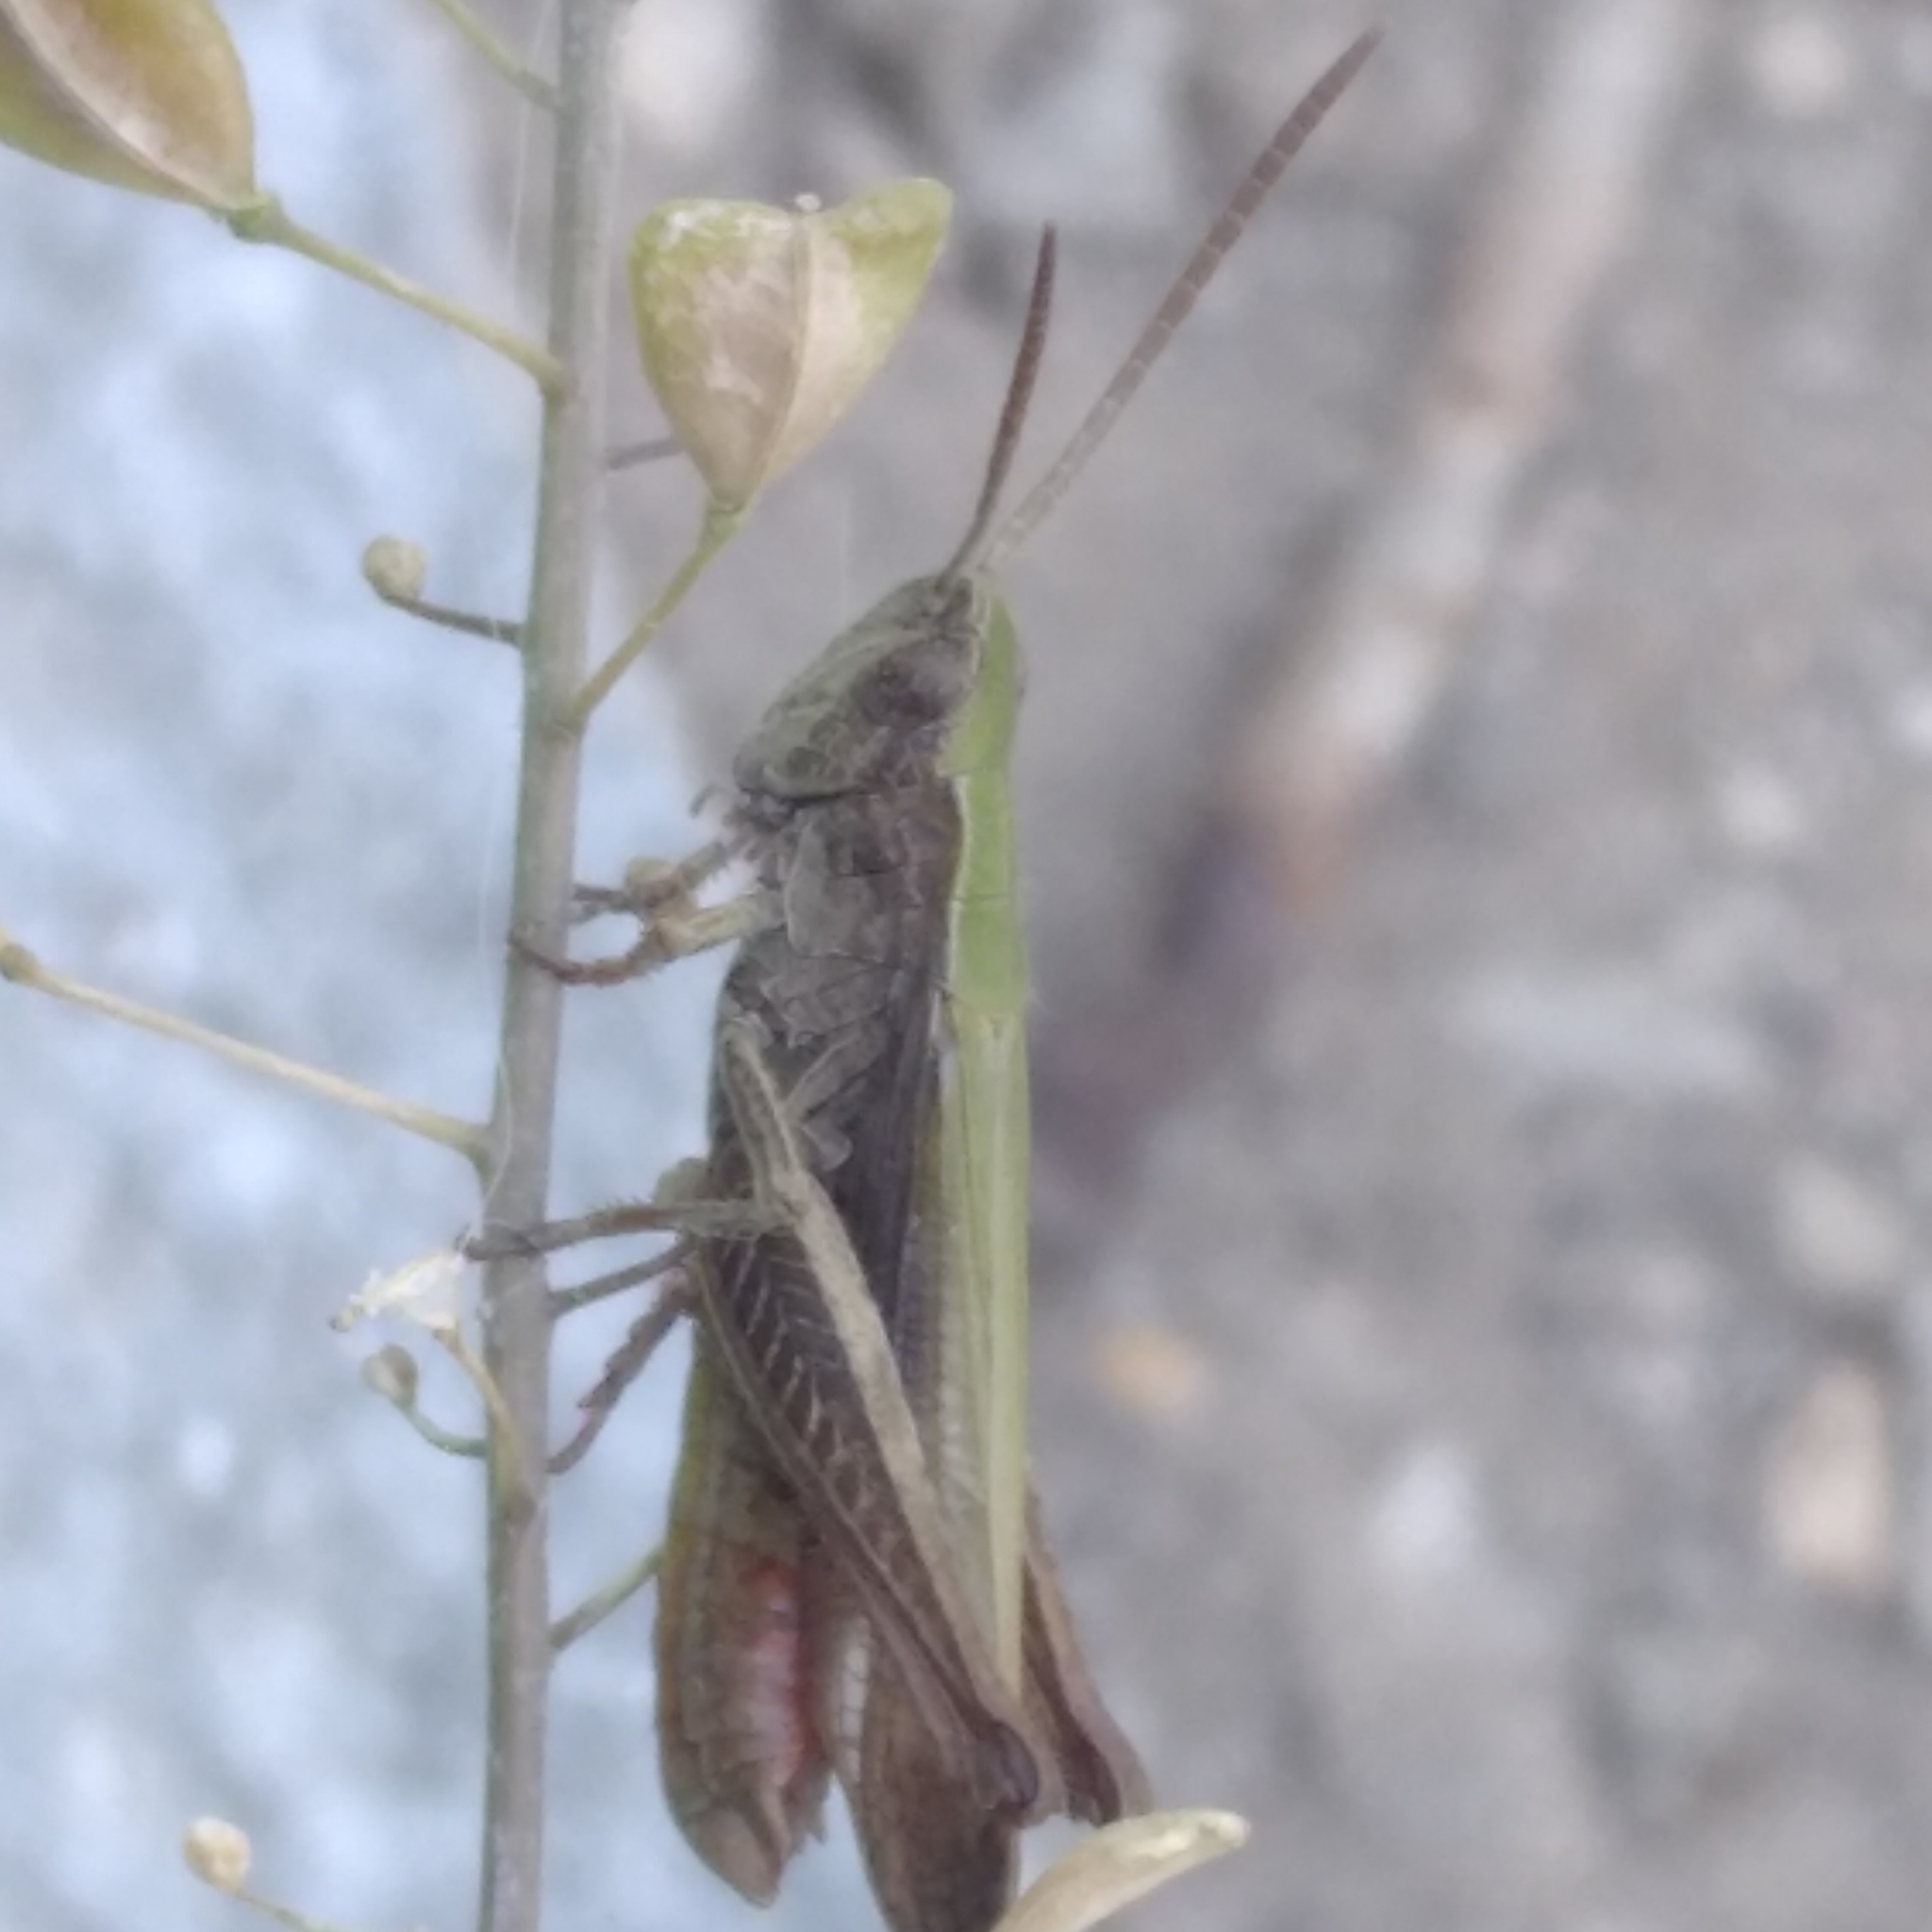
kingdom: Animalia
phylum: Arthropoda
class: Insecta
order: Orthoptera
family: Acrididae
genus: Chorthippus
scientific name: Chorthippus dorsatus
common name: Steppe grasshopper
